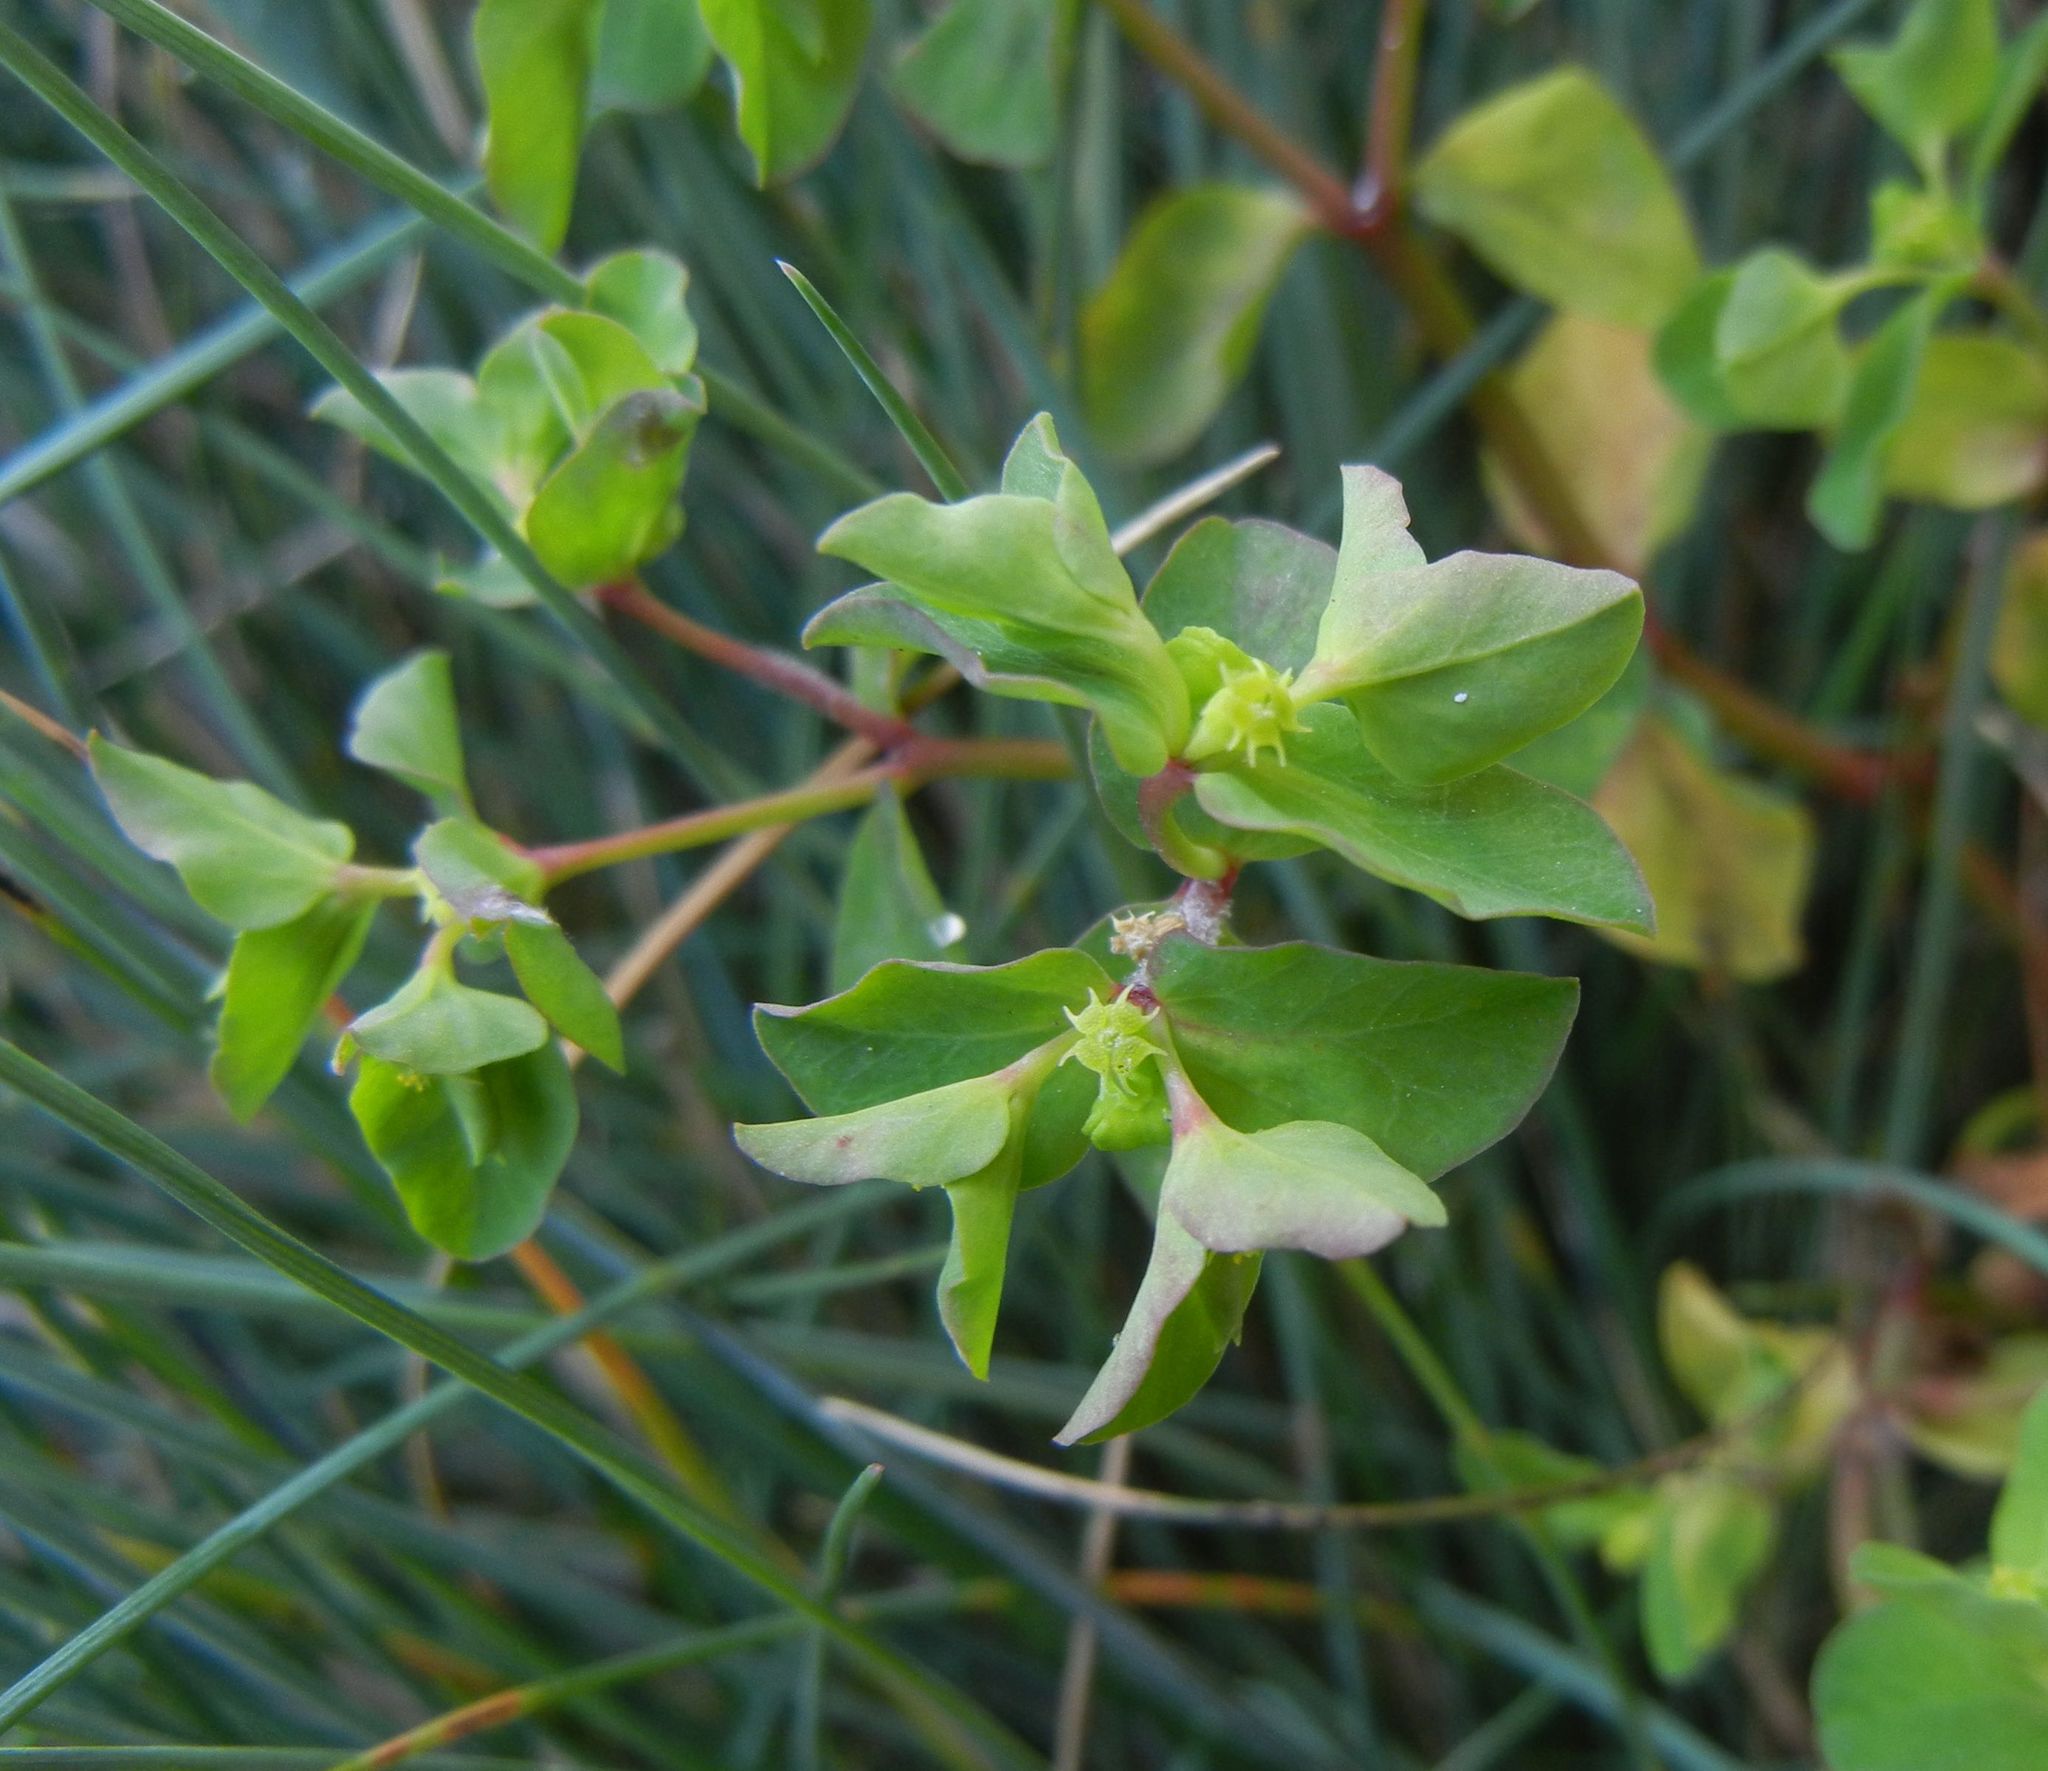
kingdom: Plantae
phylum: Tracheophyta
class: Magnoliopsida
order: Malpighiales
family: Euphorbiaceae
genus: Euphorbia
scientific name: Euphorbia peplus
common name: Petty spurge
